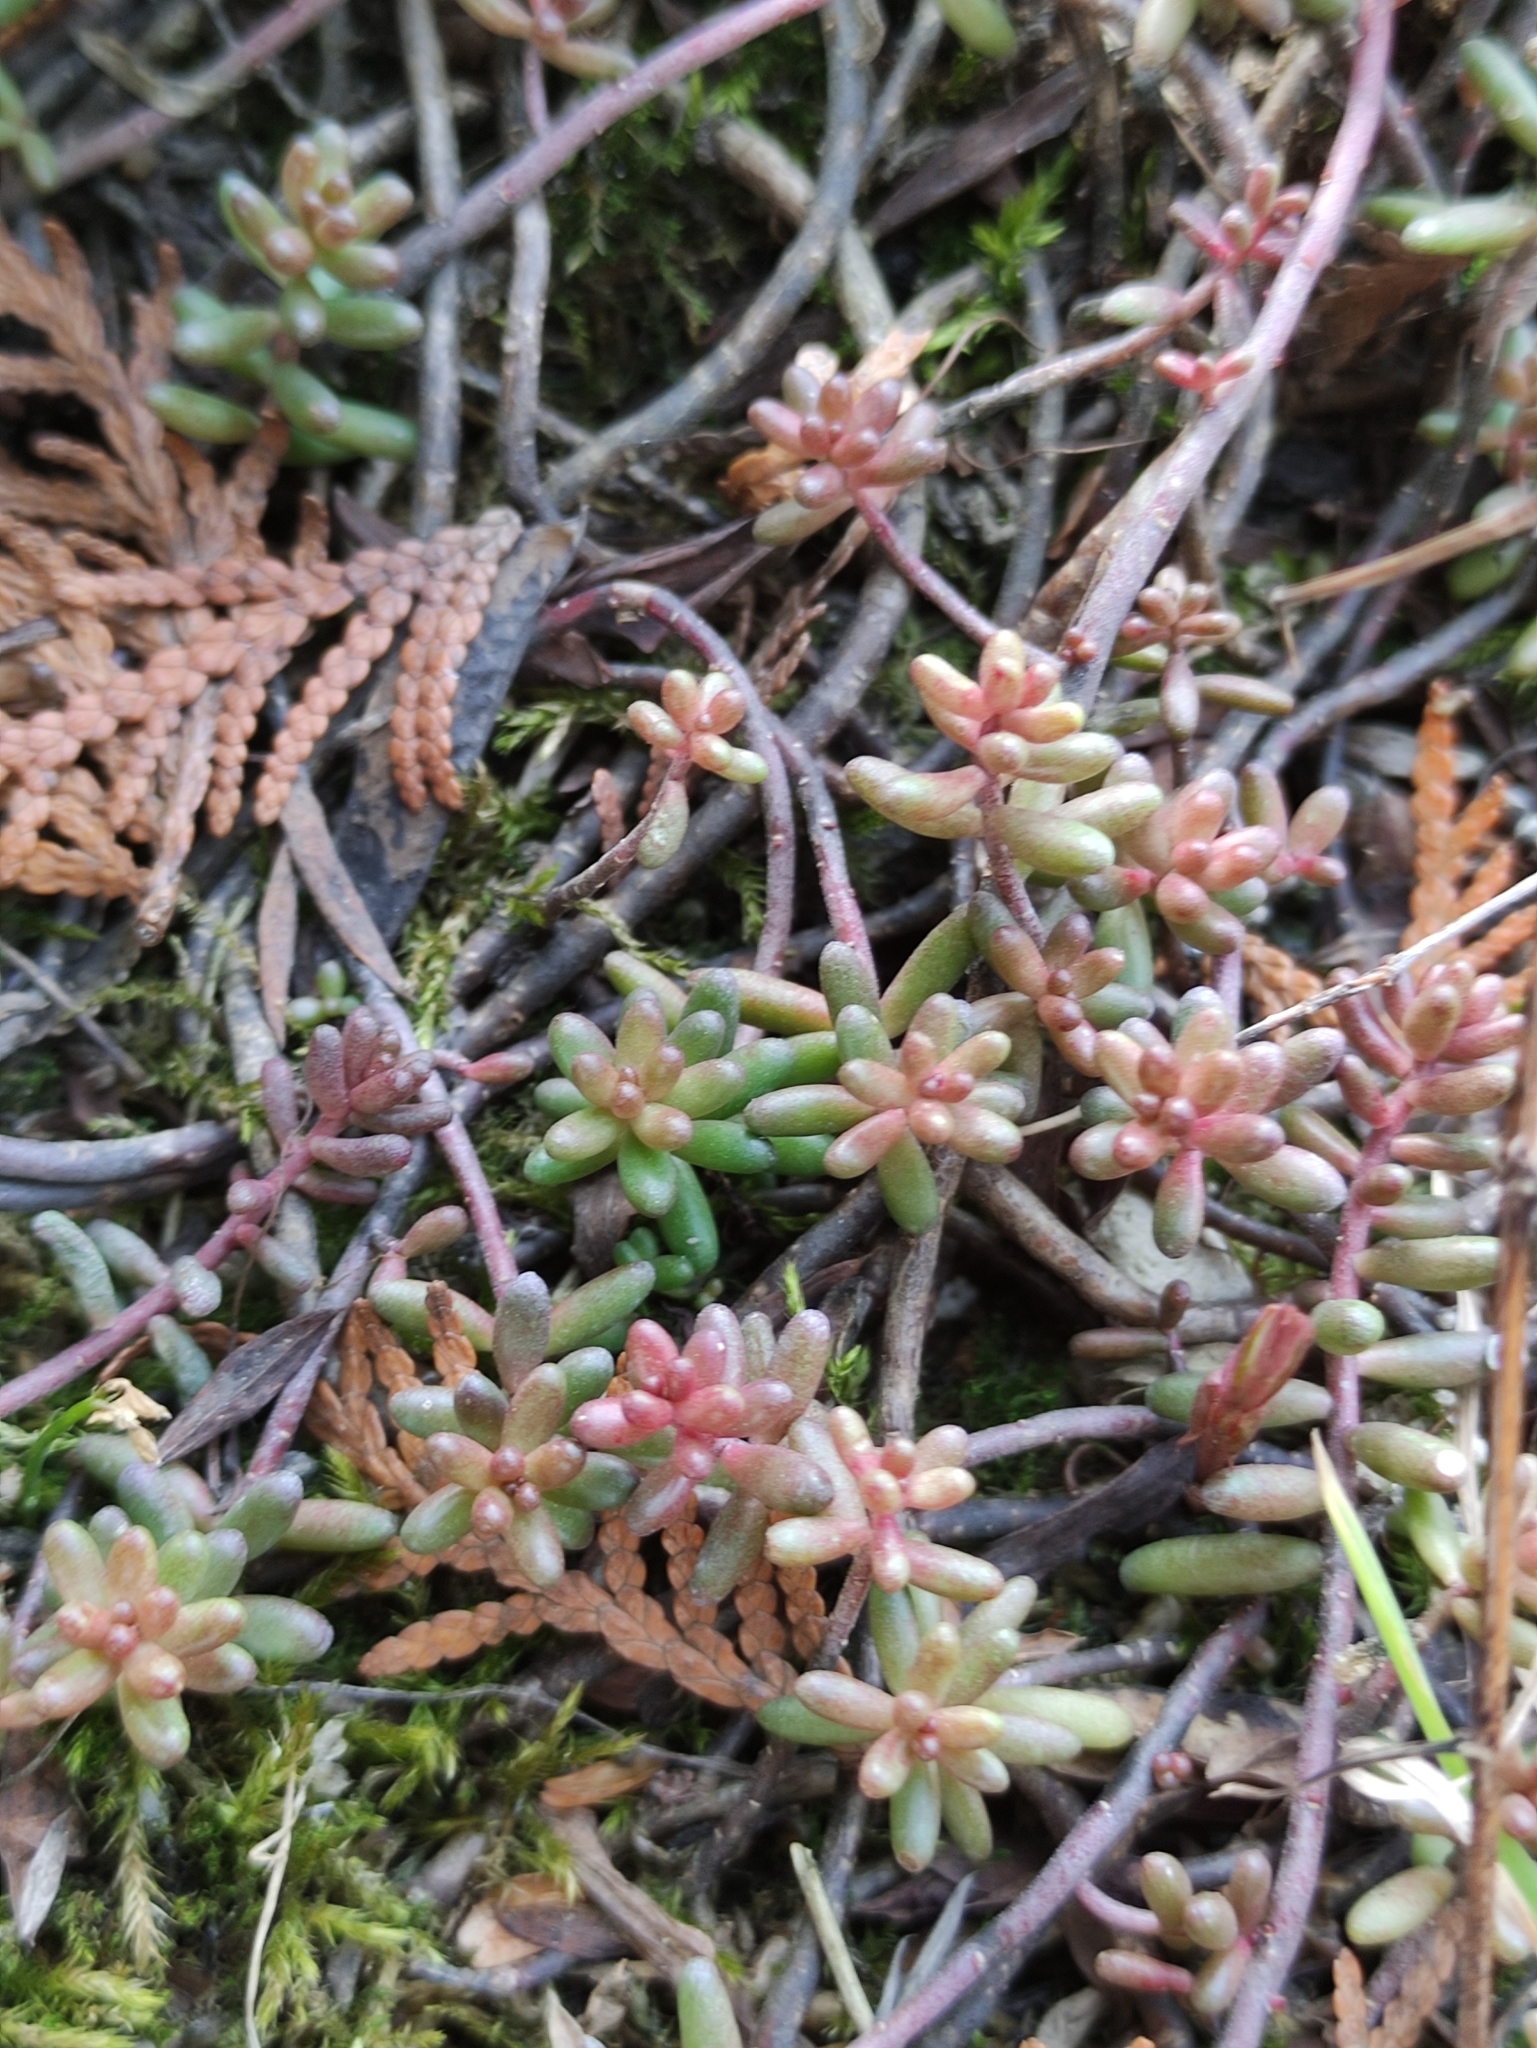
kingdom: Plantae
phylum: Tracheophyta
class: Magnoliopsida
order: Saxifragales
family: Crassulaceae
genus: Sedum
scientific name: Sedum album
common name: White stonecrop
